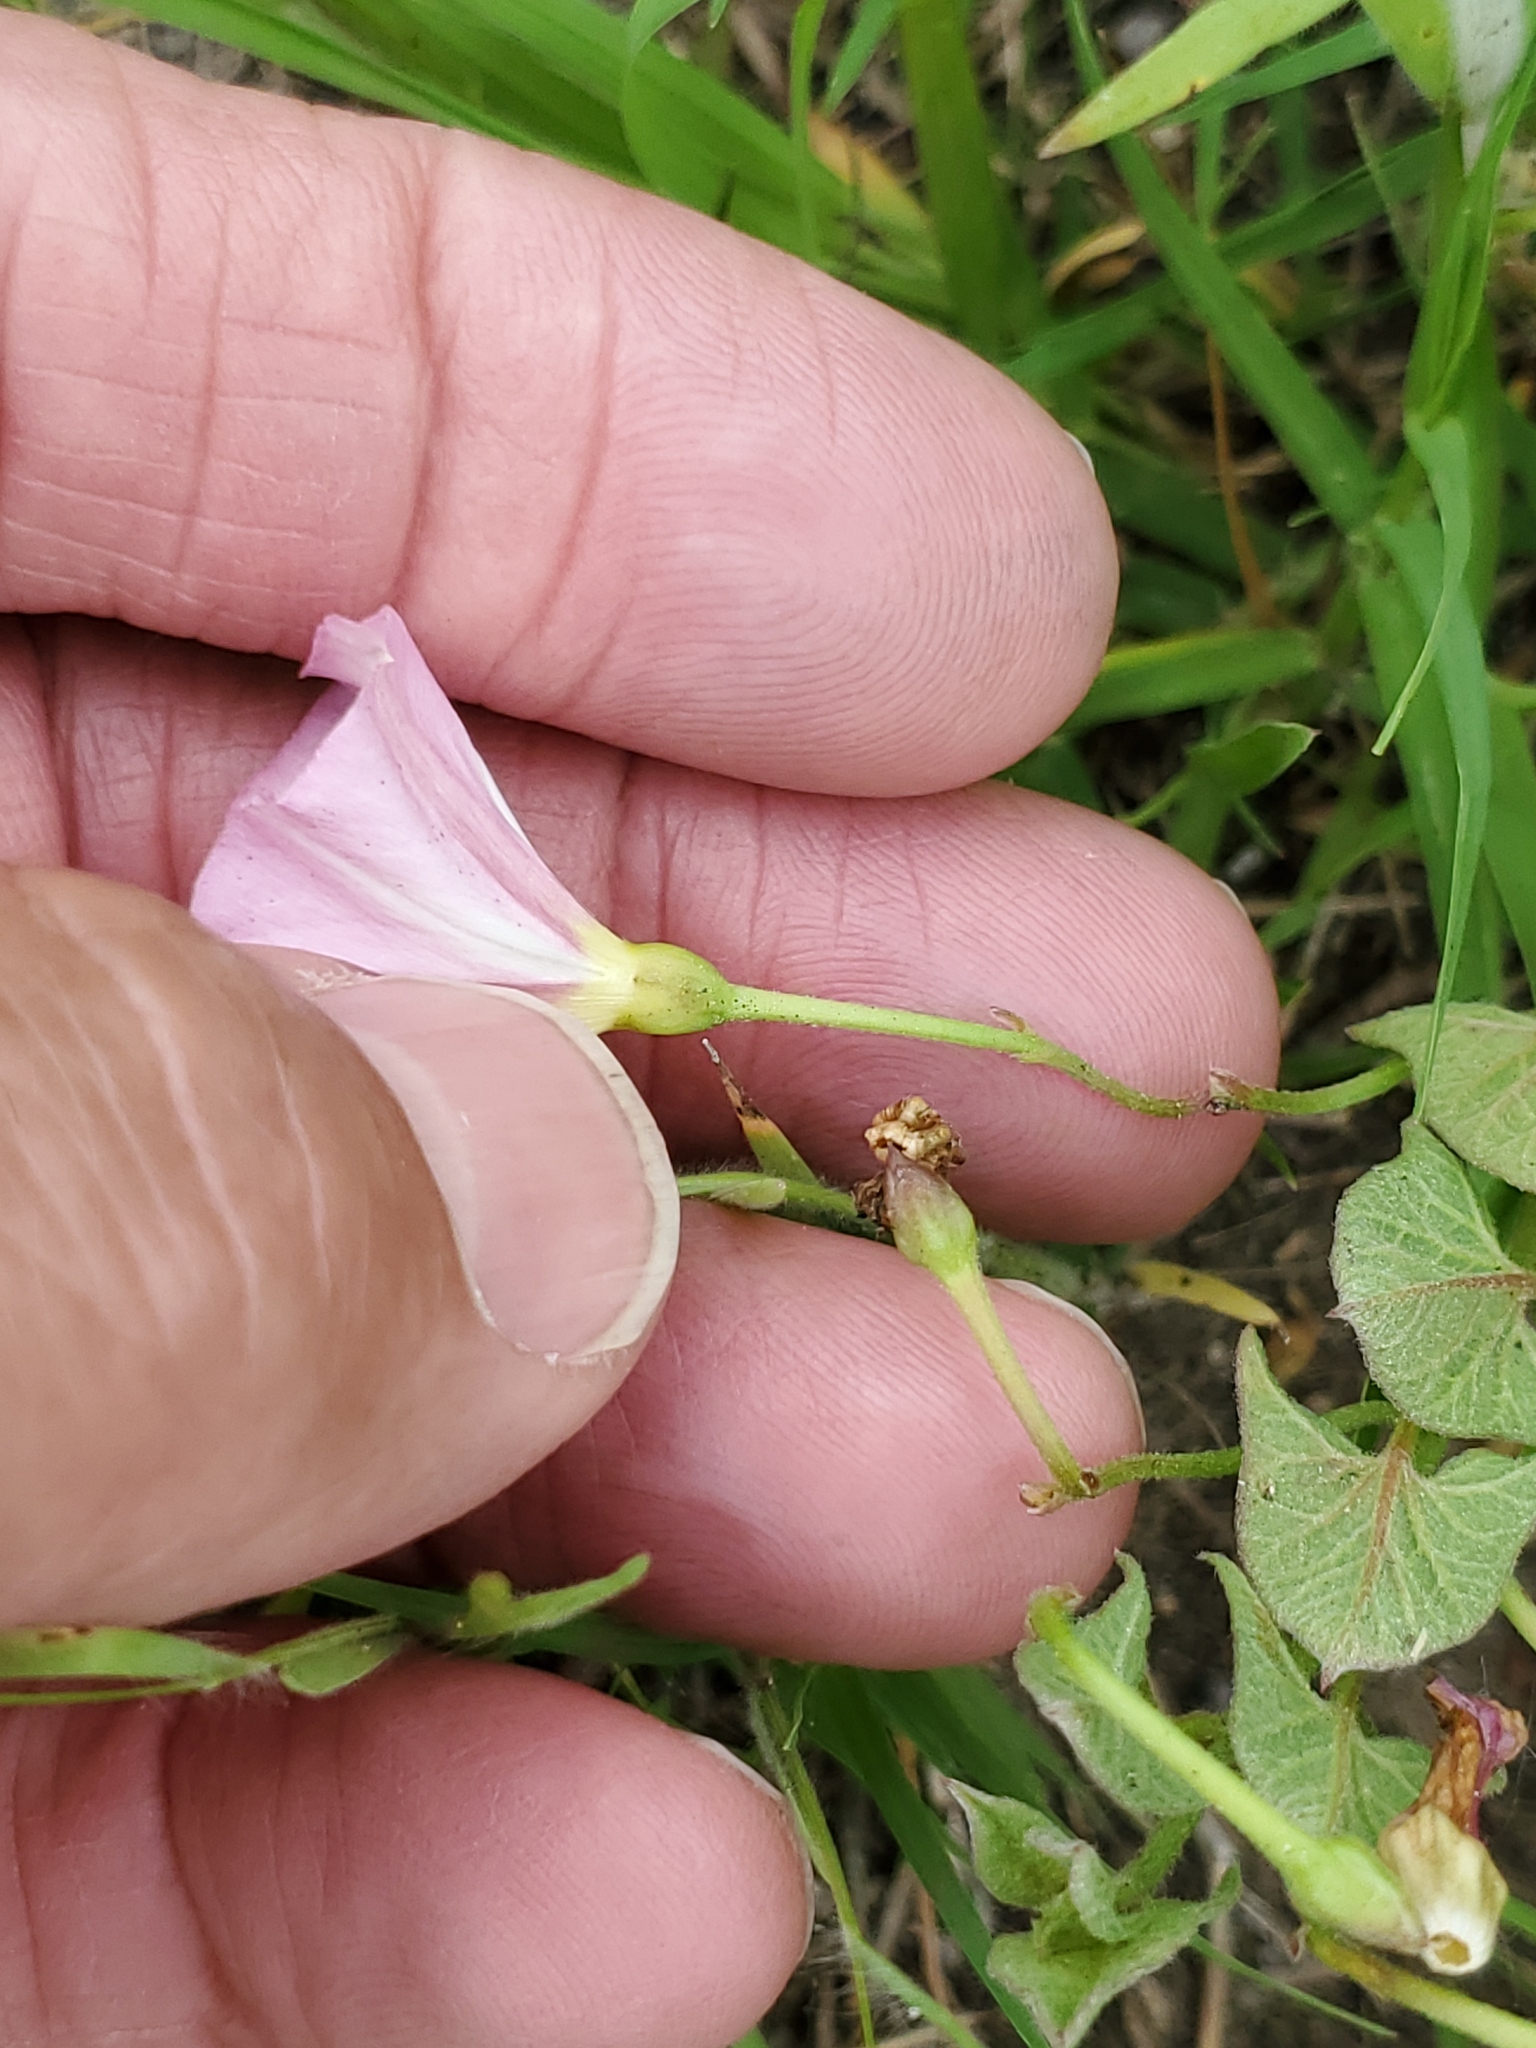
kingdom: Plantae
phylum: Tracheophyta
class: Magnoliopsida
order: Solanales
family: Convolvulaceae
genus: Convolvulus
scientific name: Convolvulus arvensis
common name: Field bindweed
